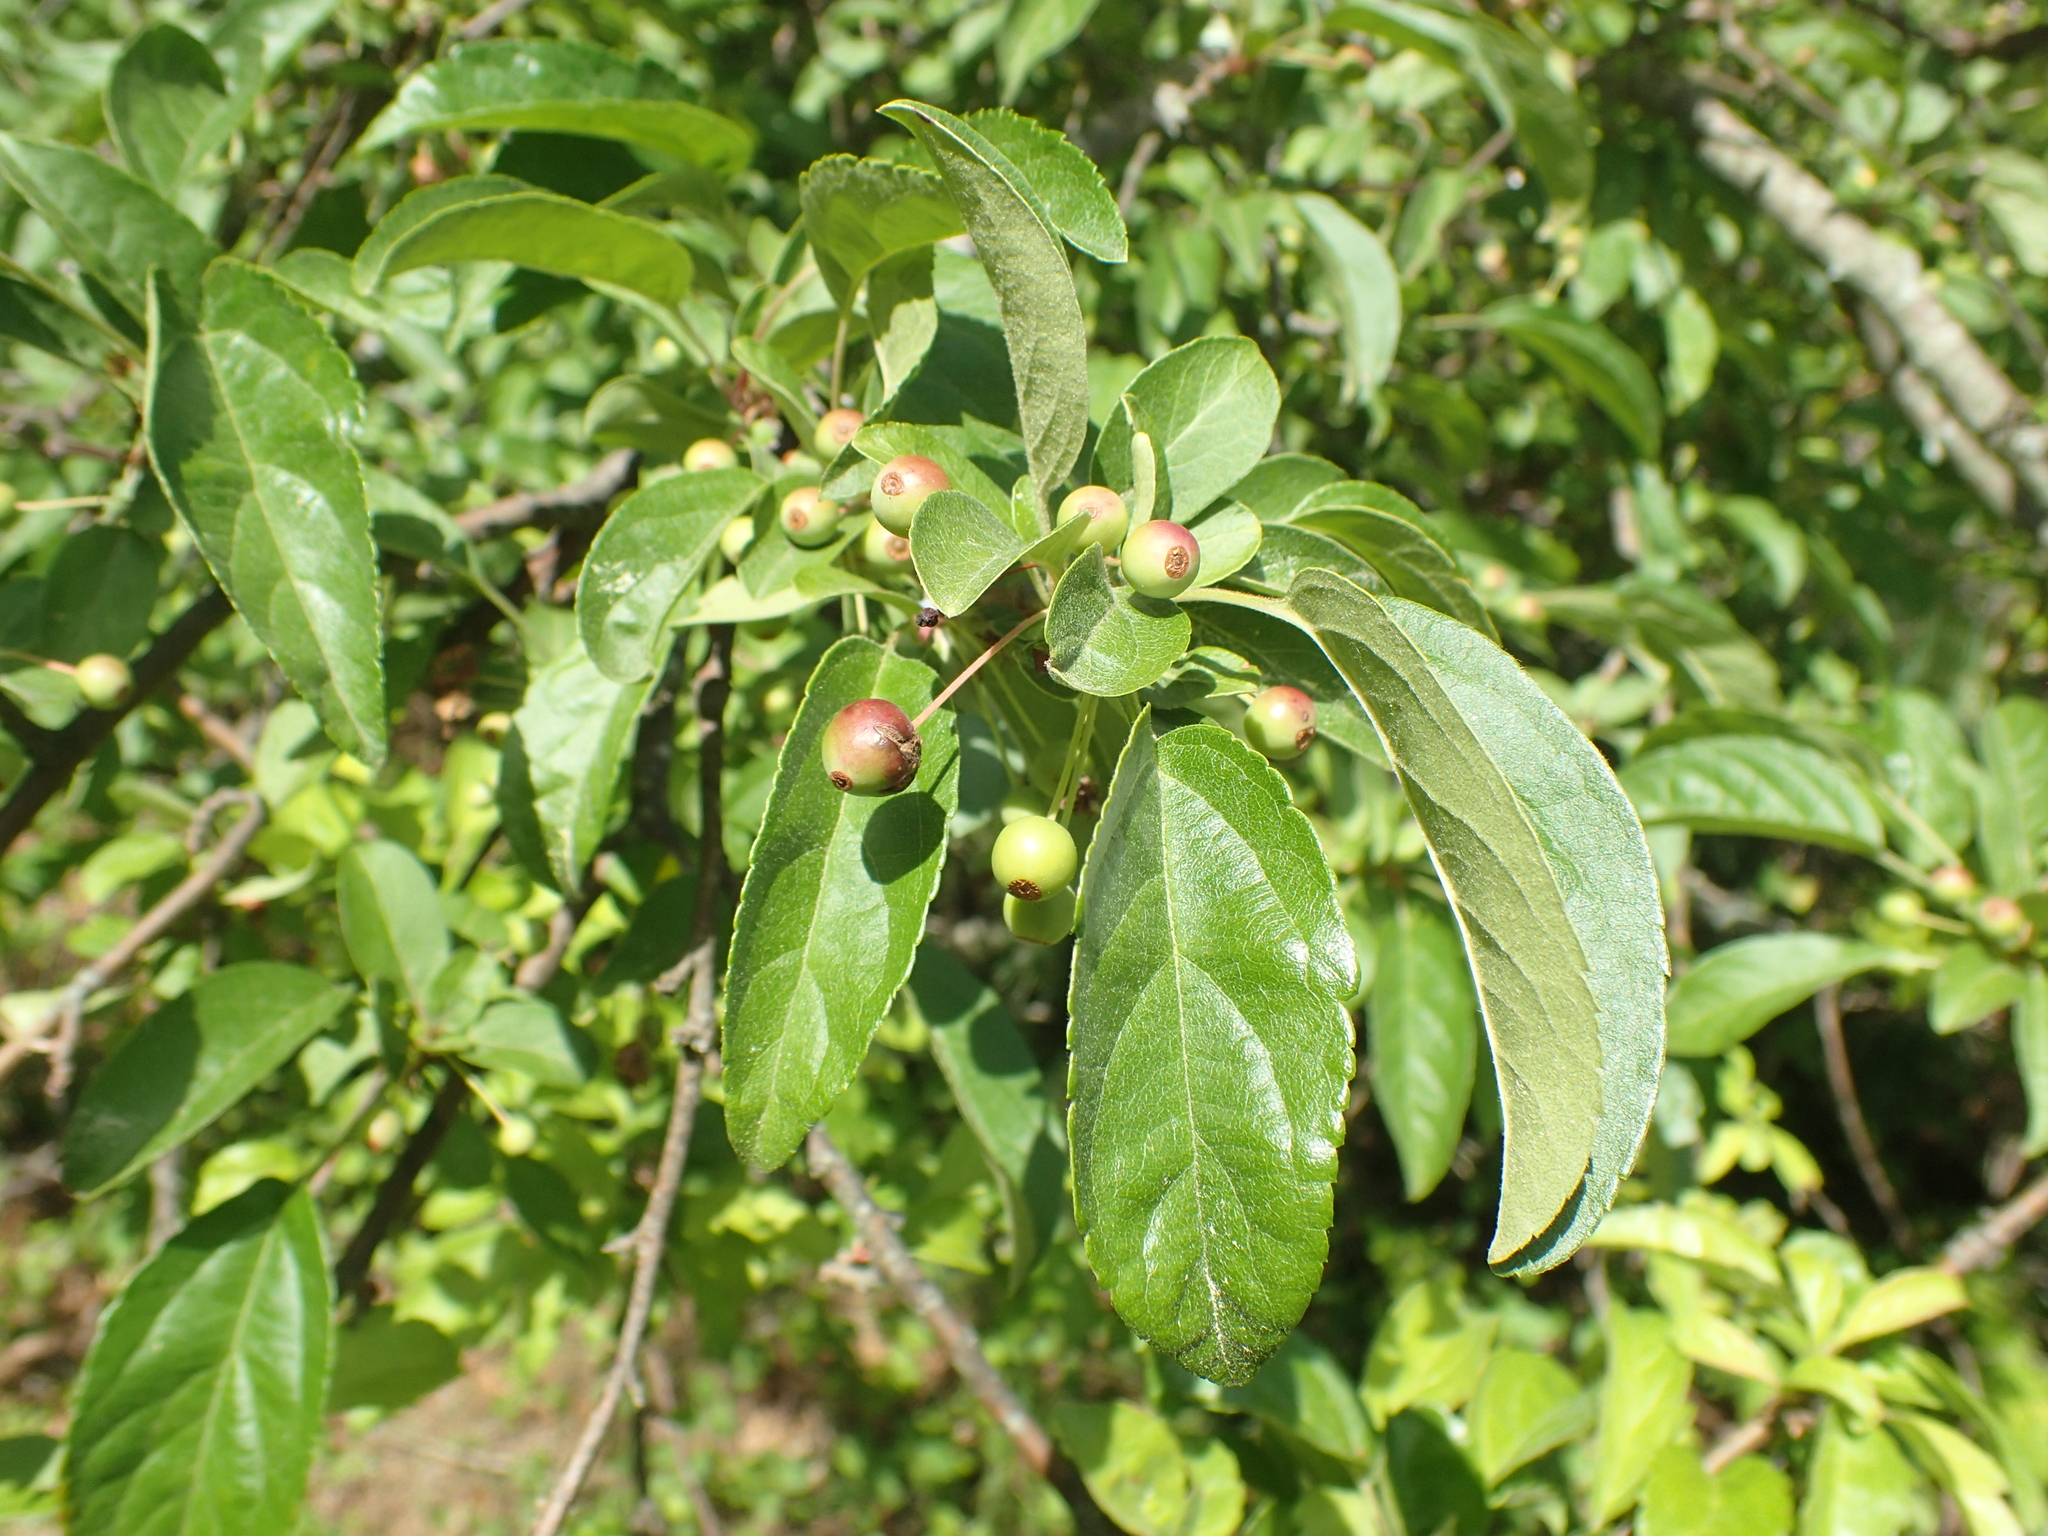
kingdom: Plantae
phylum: Tracheophyta
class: Magnoliopsida
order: Rosales
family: Rosaceae
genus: Malus
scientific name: Malus baccata
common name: Siberian crab
